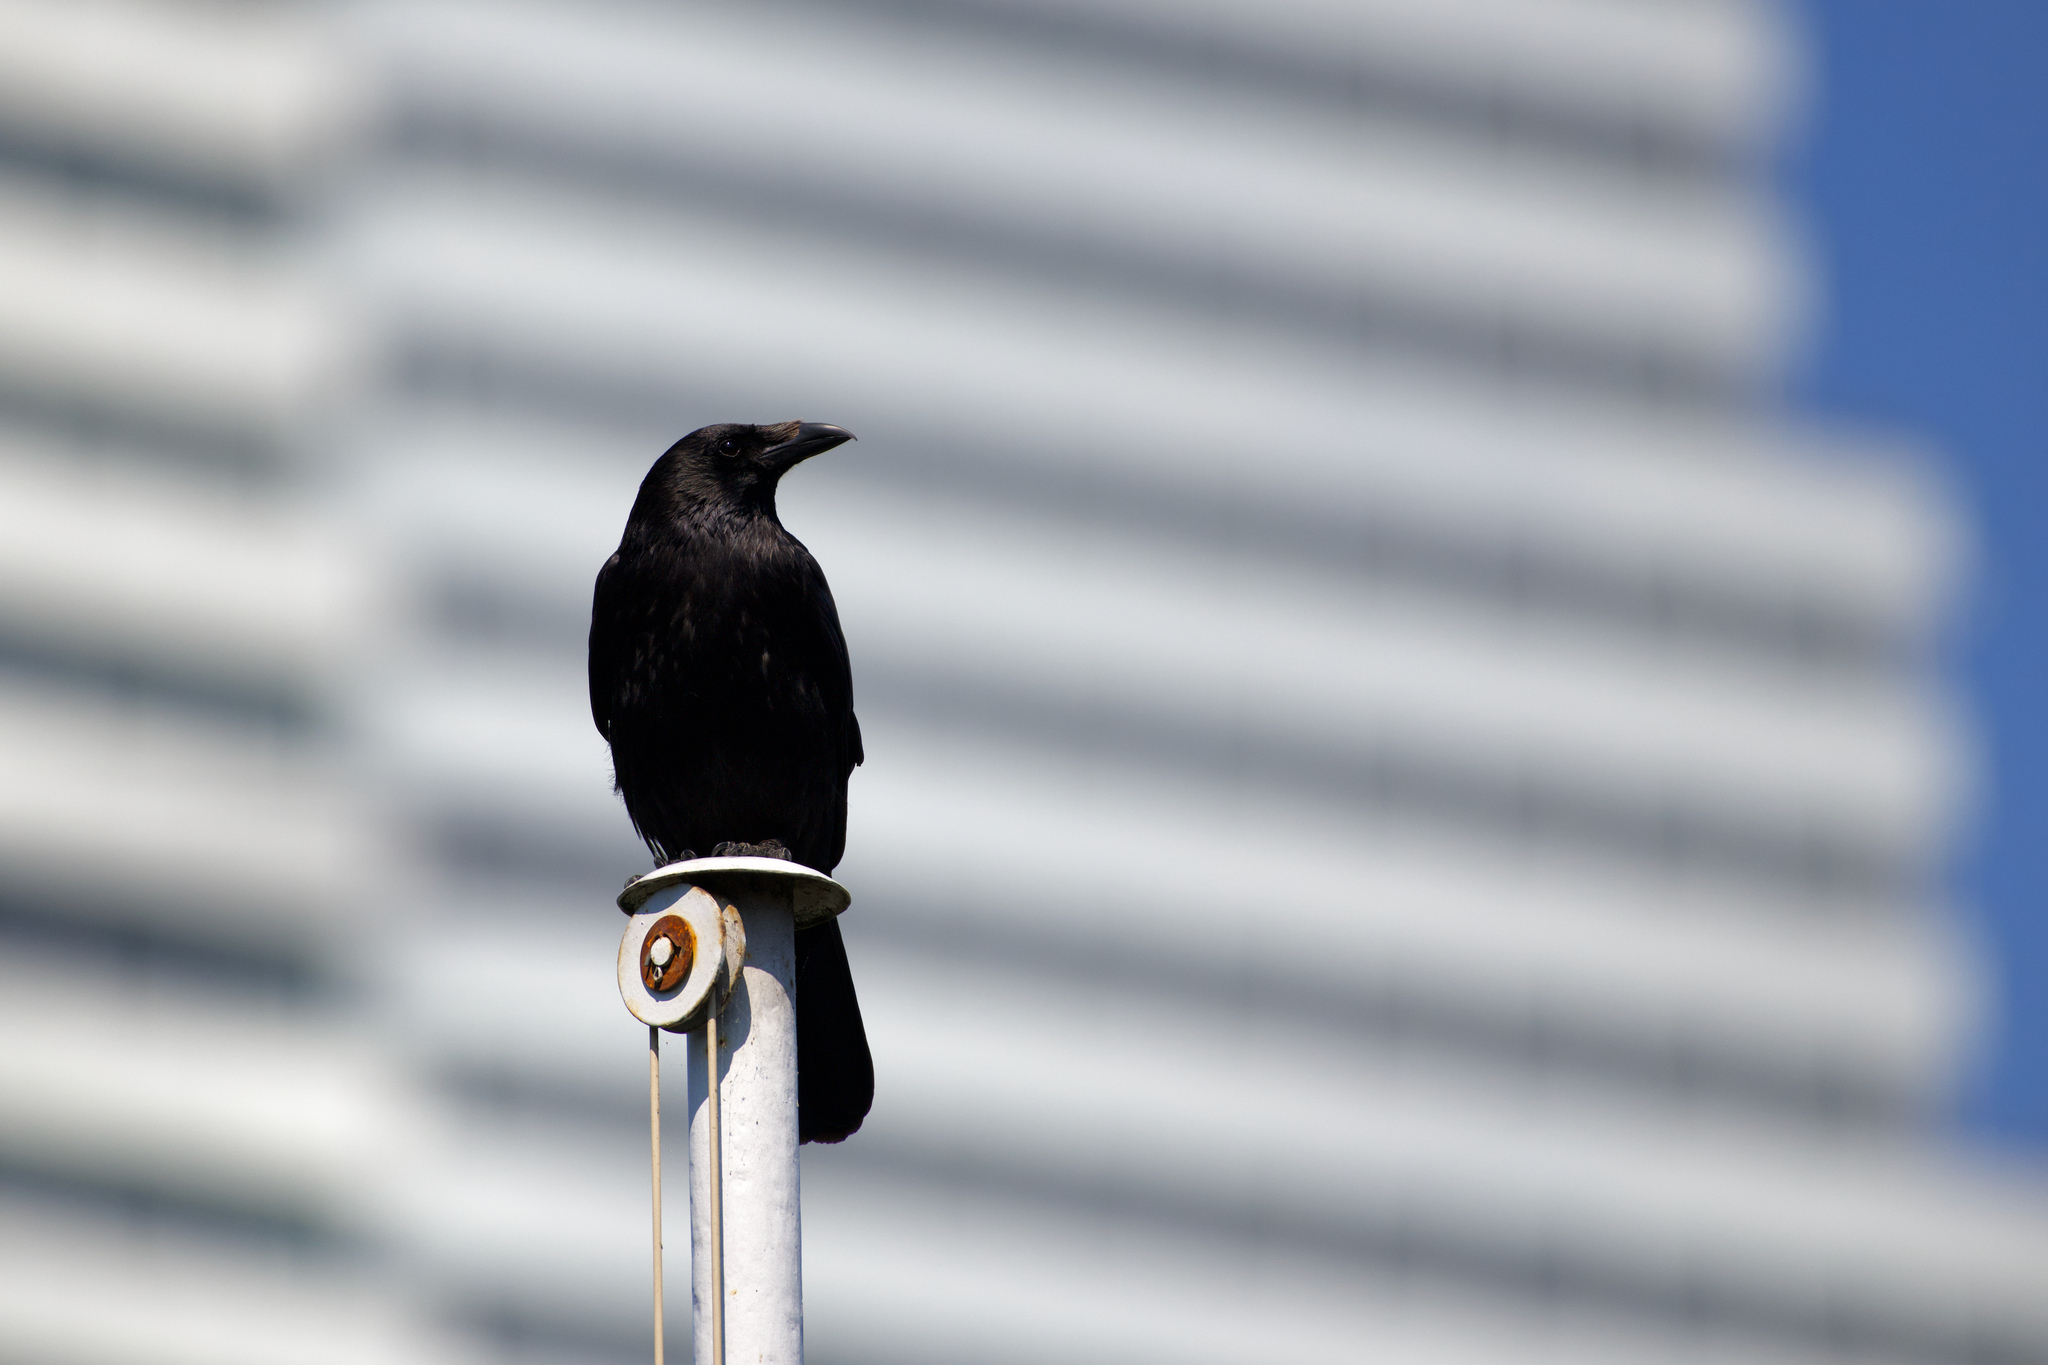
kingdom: Animalia
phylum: Chordata
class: Aves
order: Passeriformes
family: Corvidae
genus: Corvus
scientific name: Corvus corone
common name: Carrion crow
